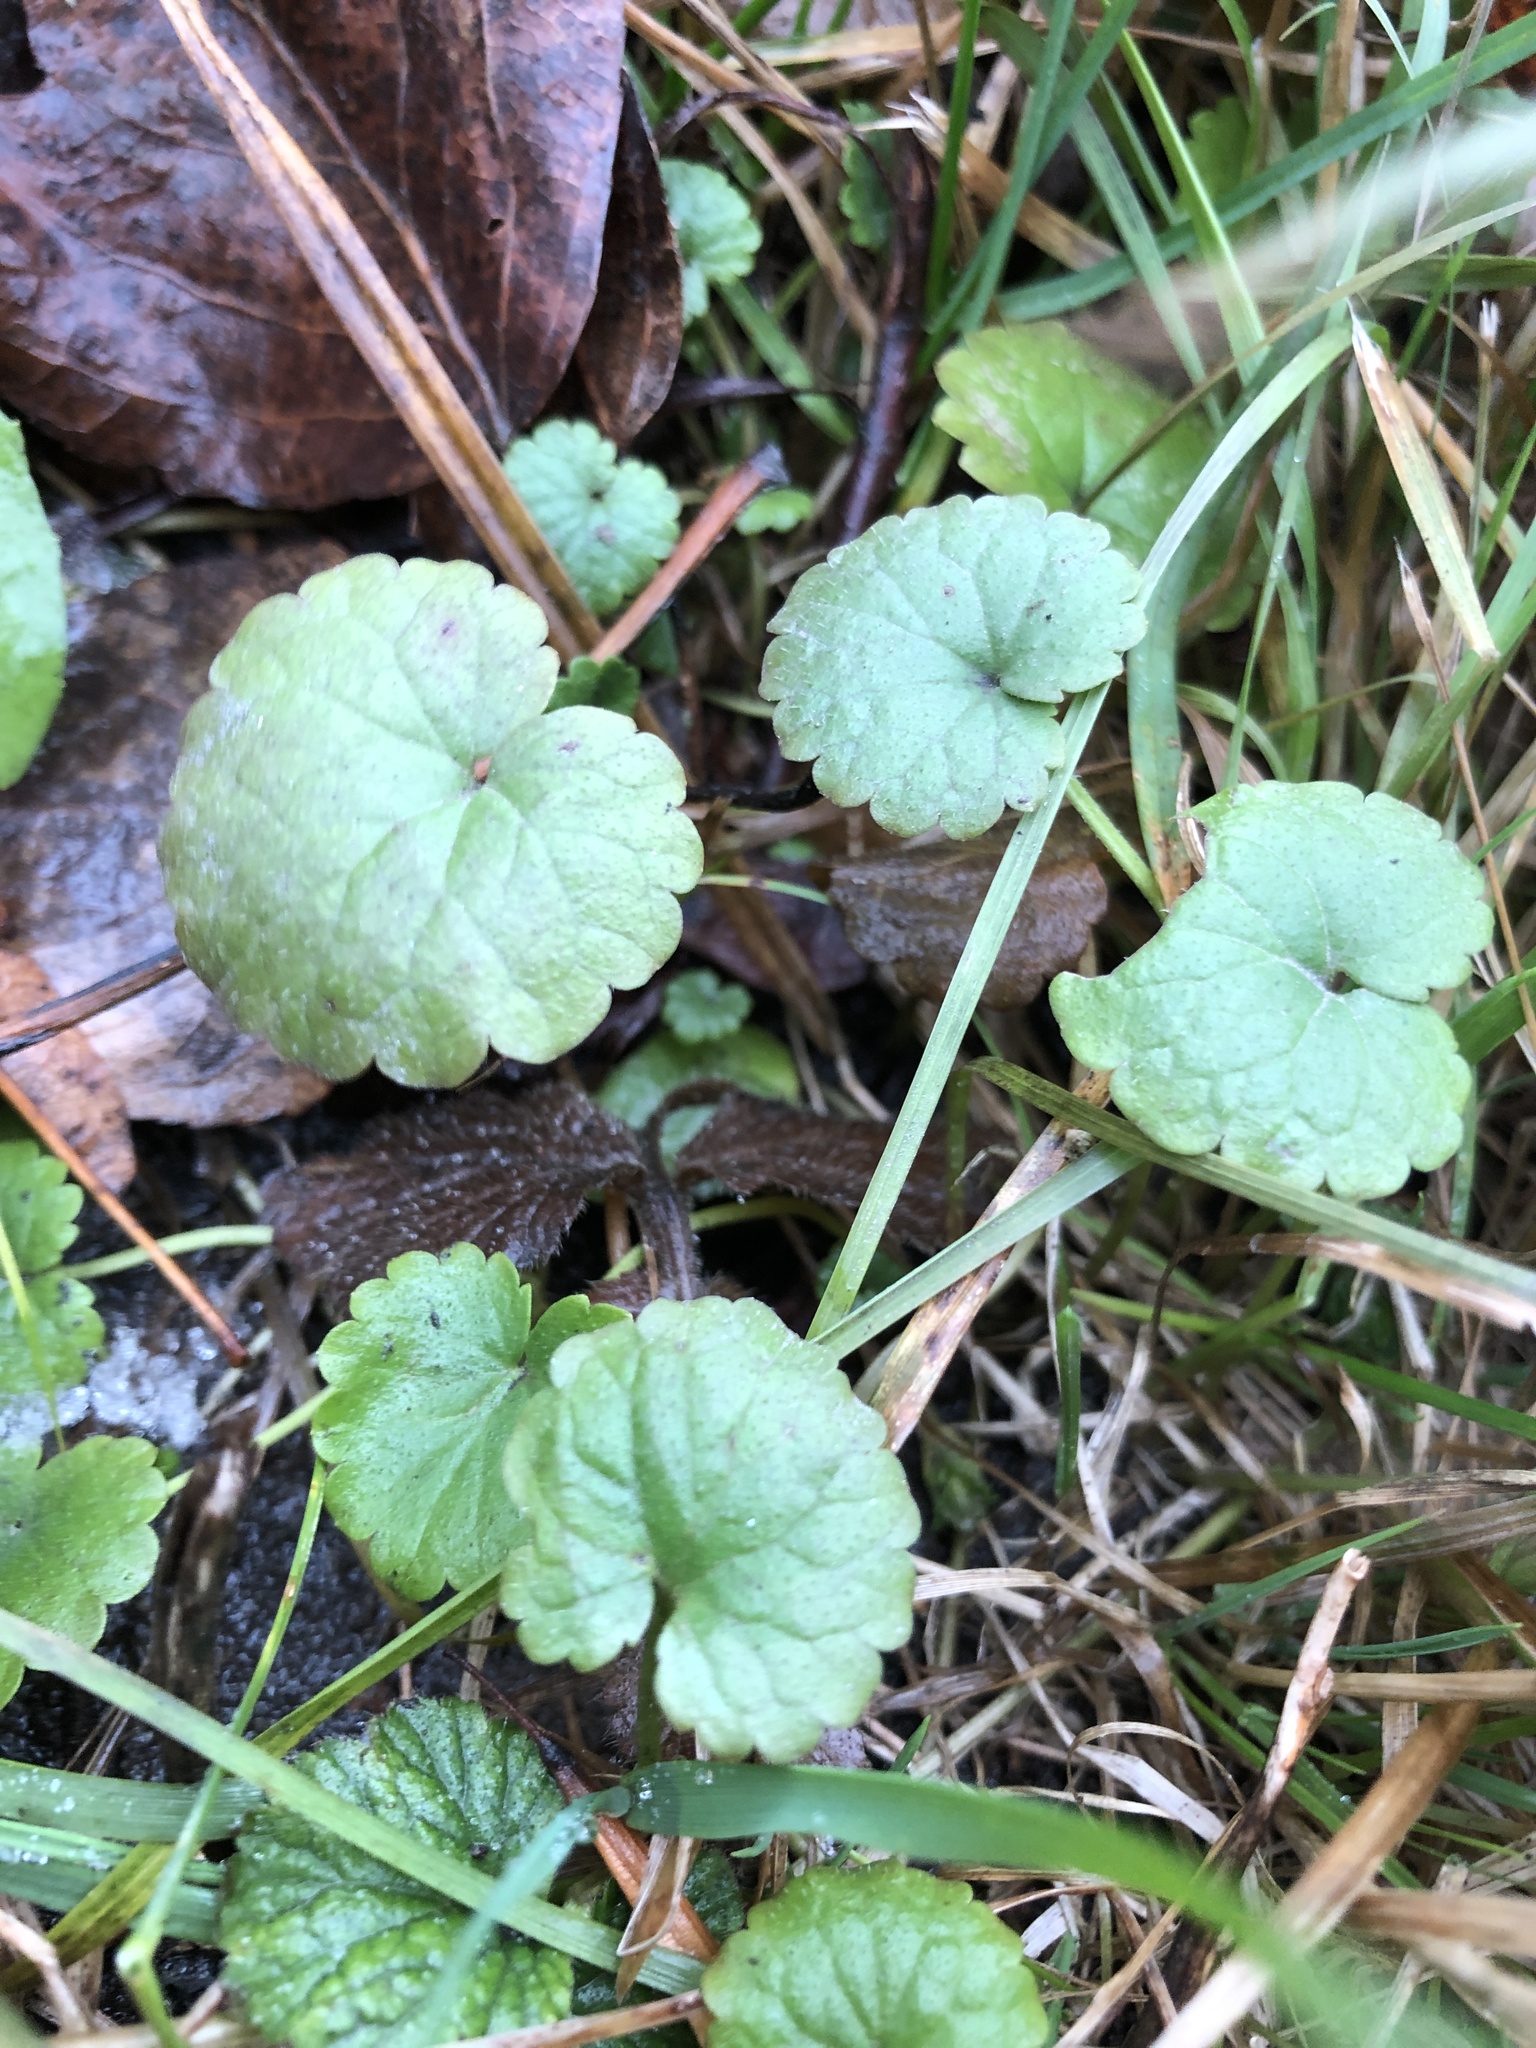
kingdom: Plantae
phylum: Tracheophyta
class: Magnoliopsida
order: Lamiales
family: Lamiaceae
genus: Glechoma
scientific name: Glechoma hederacea
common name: Ground ivy
